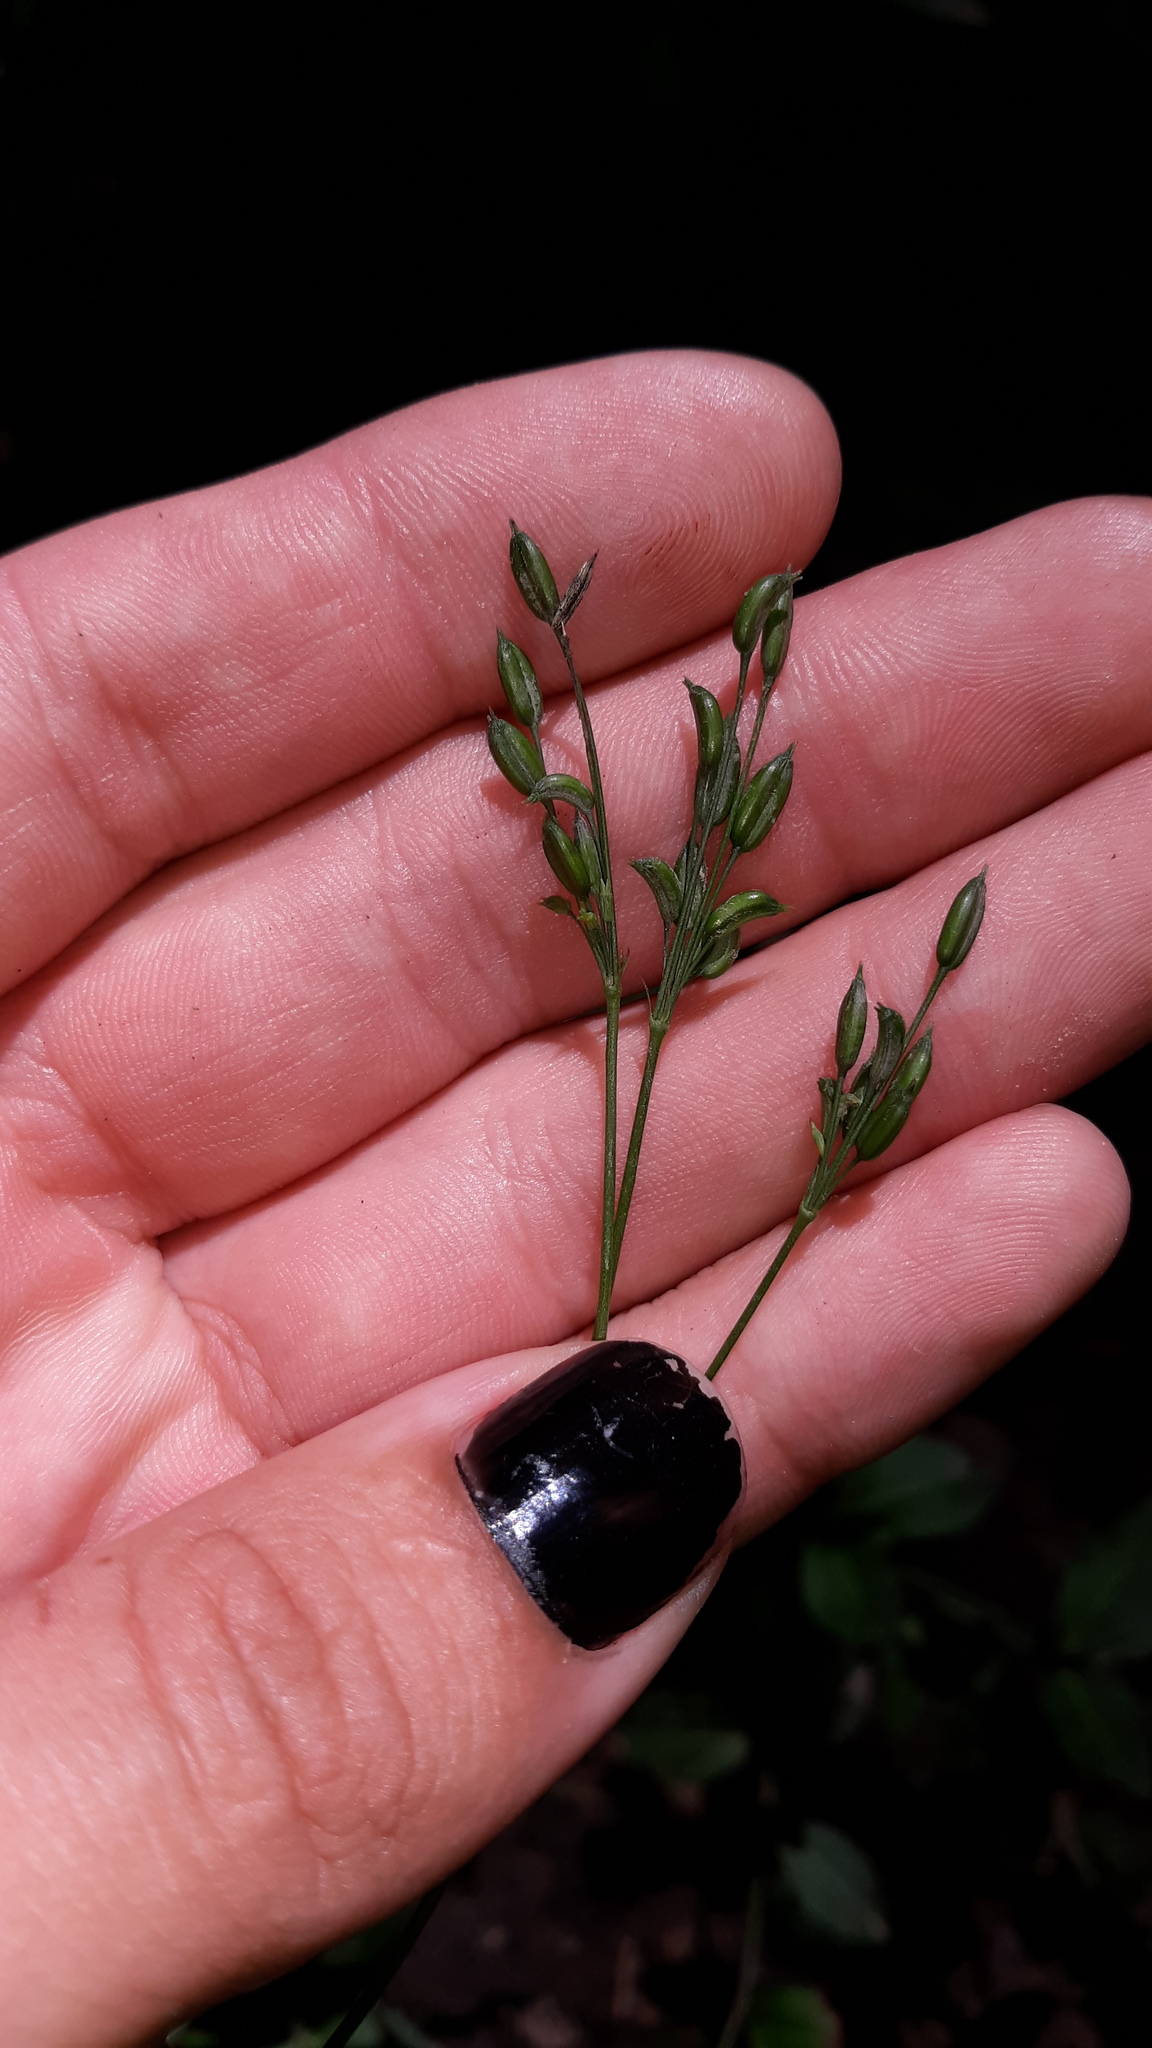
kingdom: Plantae
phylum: Tracheophyta
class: Magnoliopsida
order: Apiales
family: Apiaceae
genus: Cryptotaenia
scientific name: Cryptotaenia canadensis
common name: Honewort
